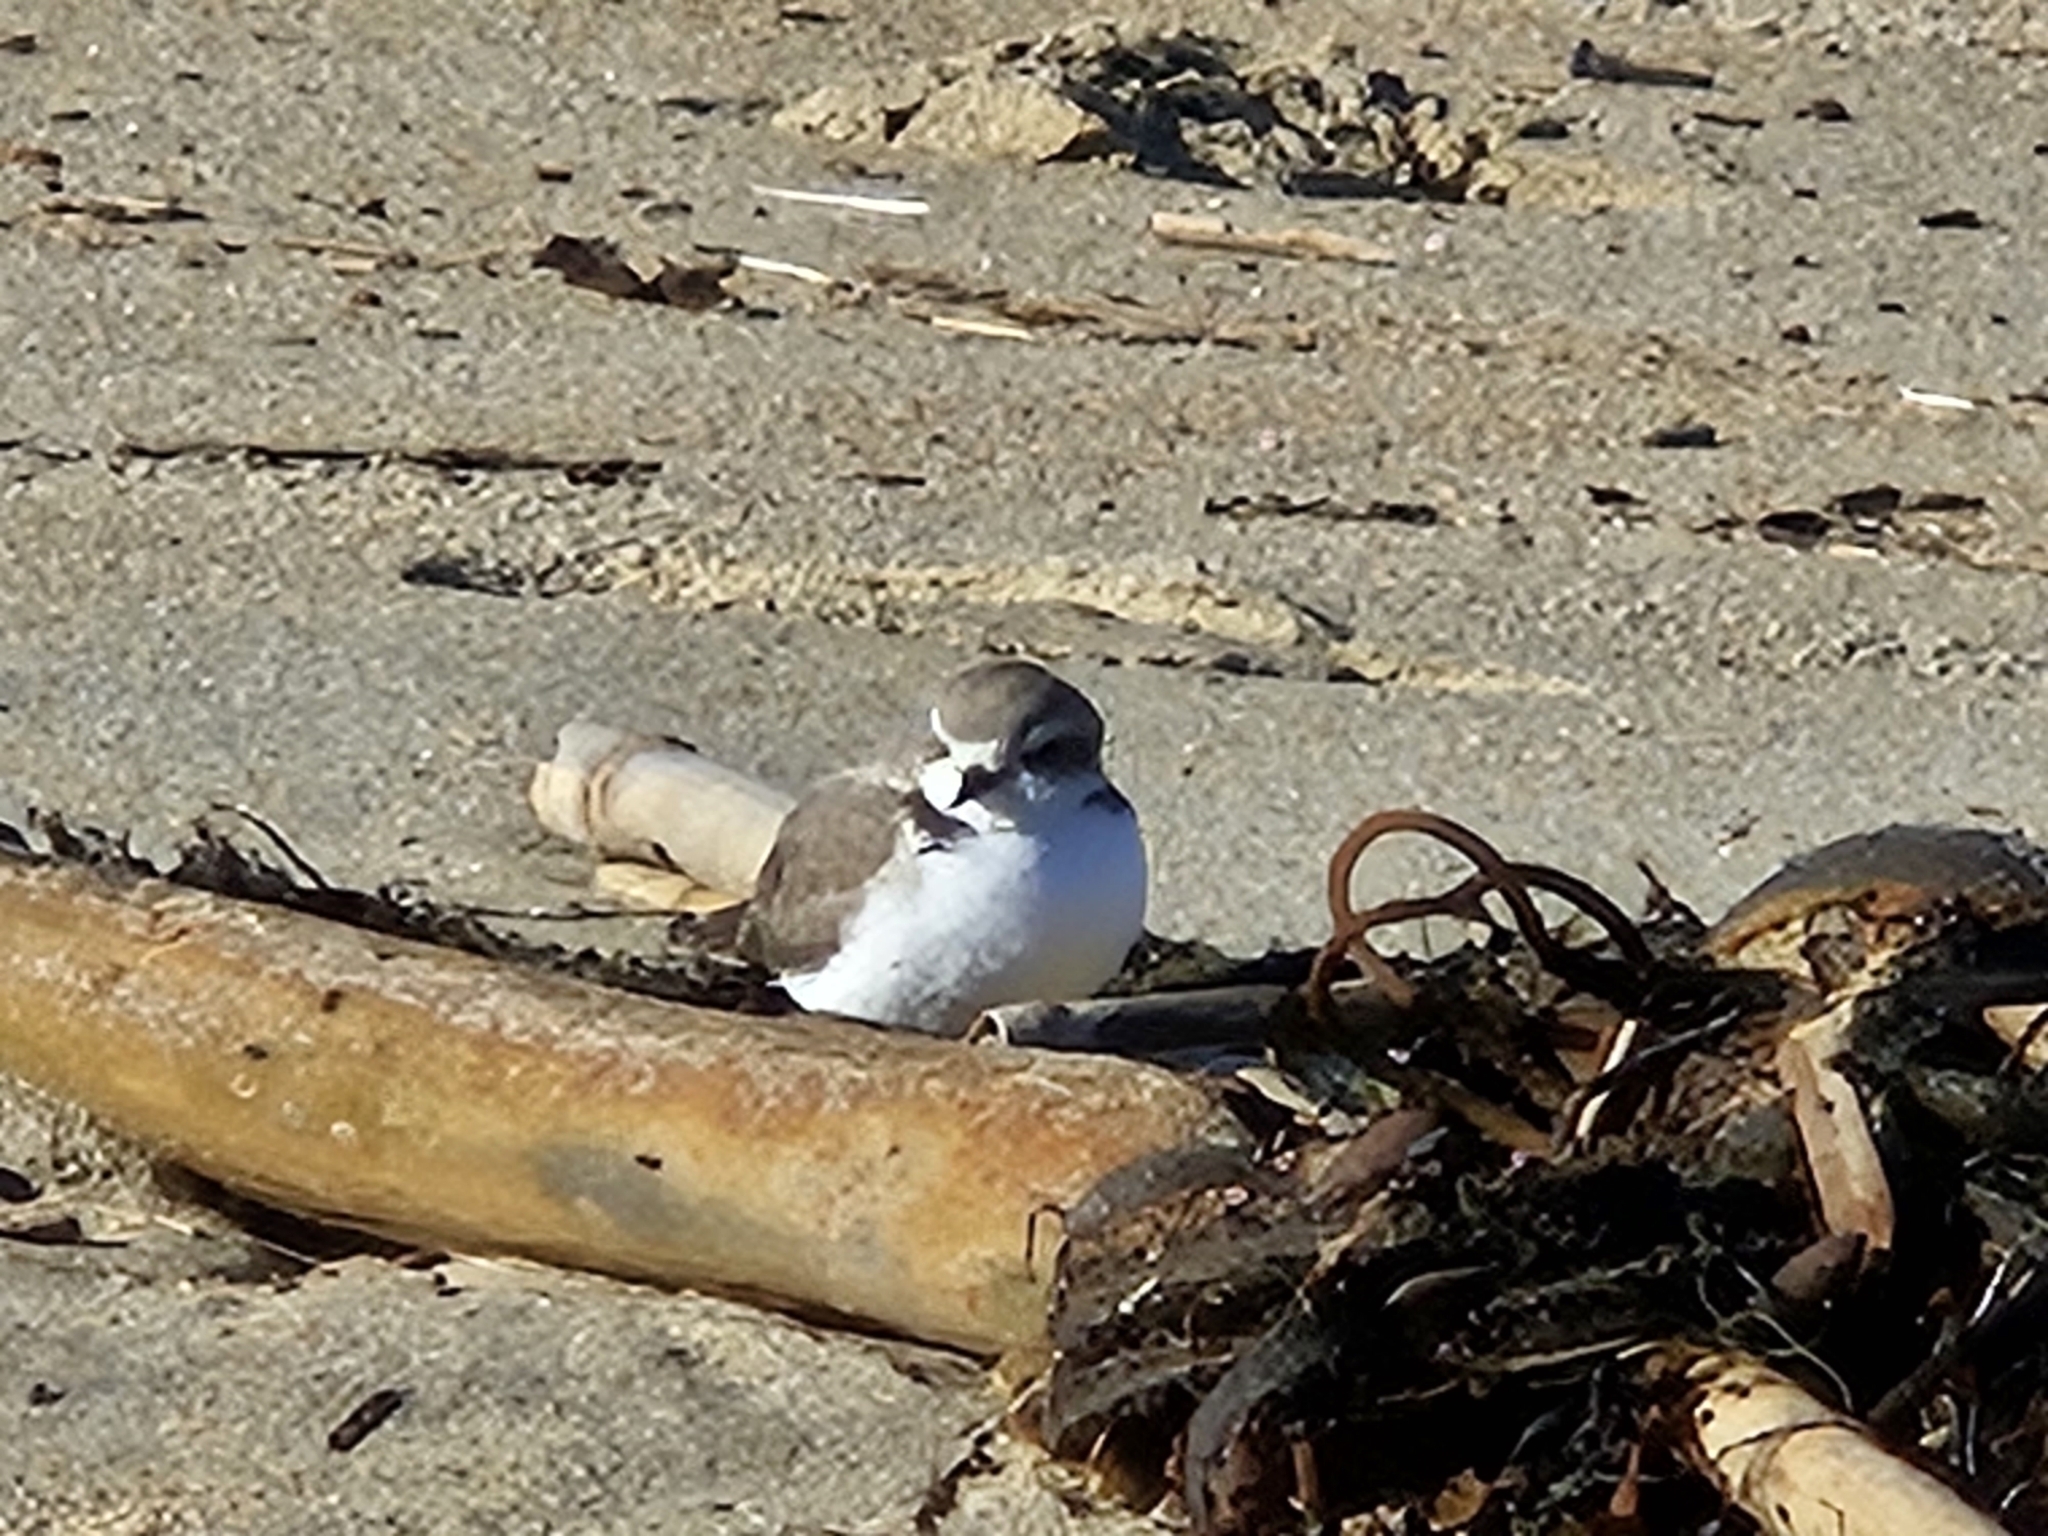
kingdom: Animalia
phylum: Chordata
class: Aves
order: Charadriiformes
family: Charadriidae
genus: Anarhynchus
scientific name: Anarhynchus
